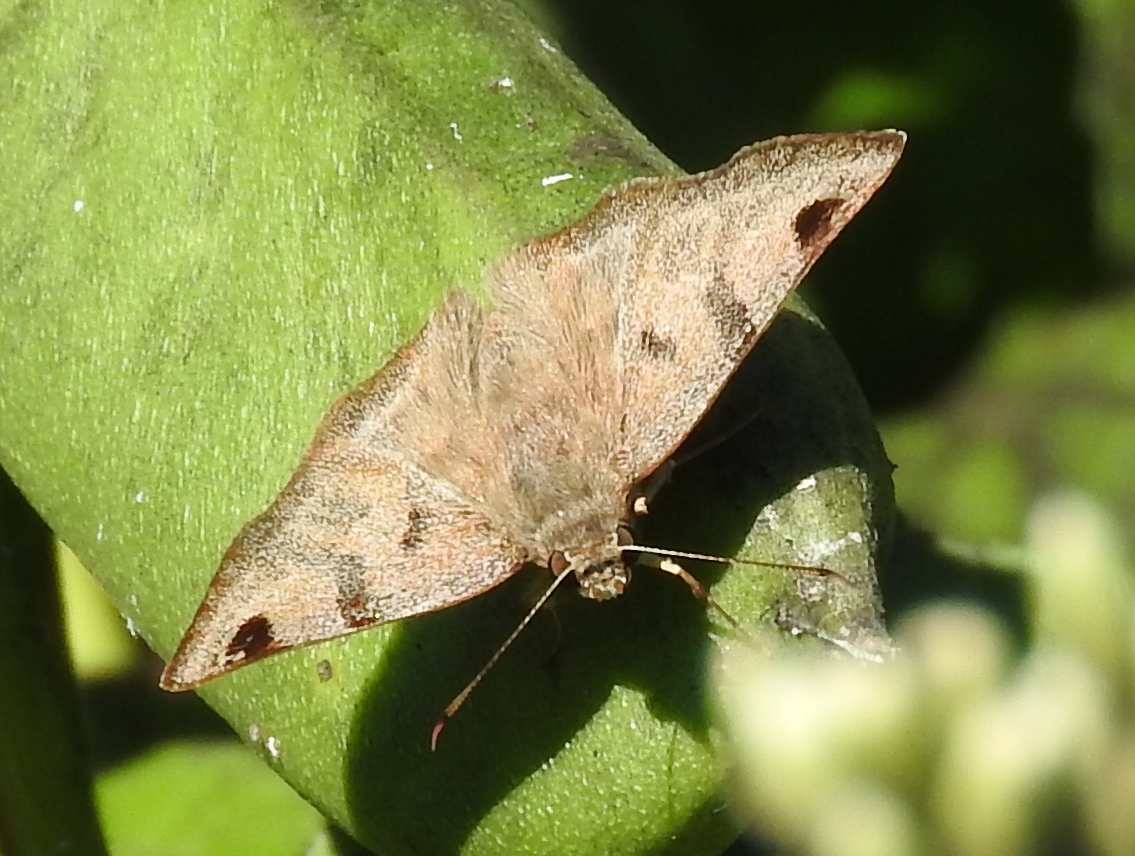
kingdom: Animalia
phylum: Arthropoda
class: Insecta
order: Lepidoptera
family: Hesperiidae
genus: Arteurotia
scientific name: Arteurotia tractipennis
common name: Starred skipper
